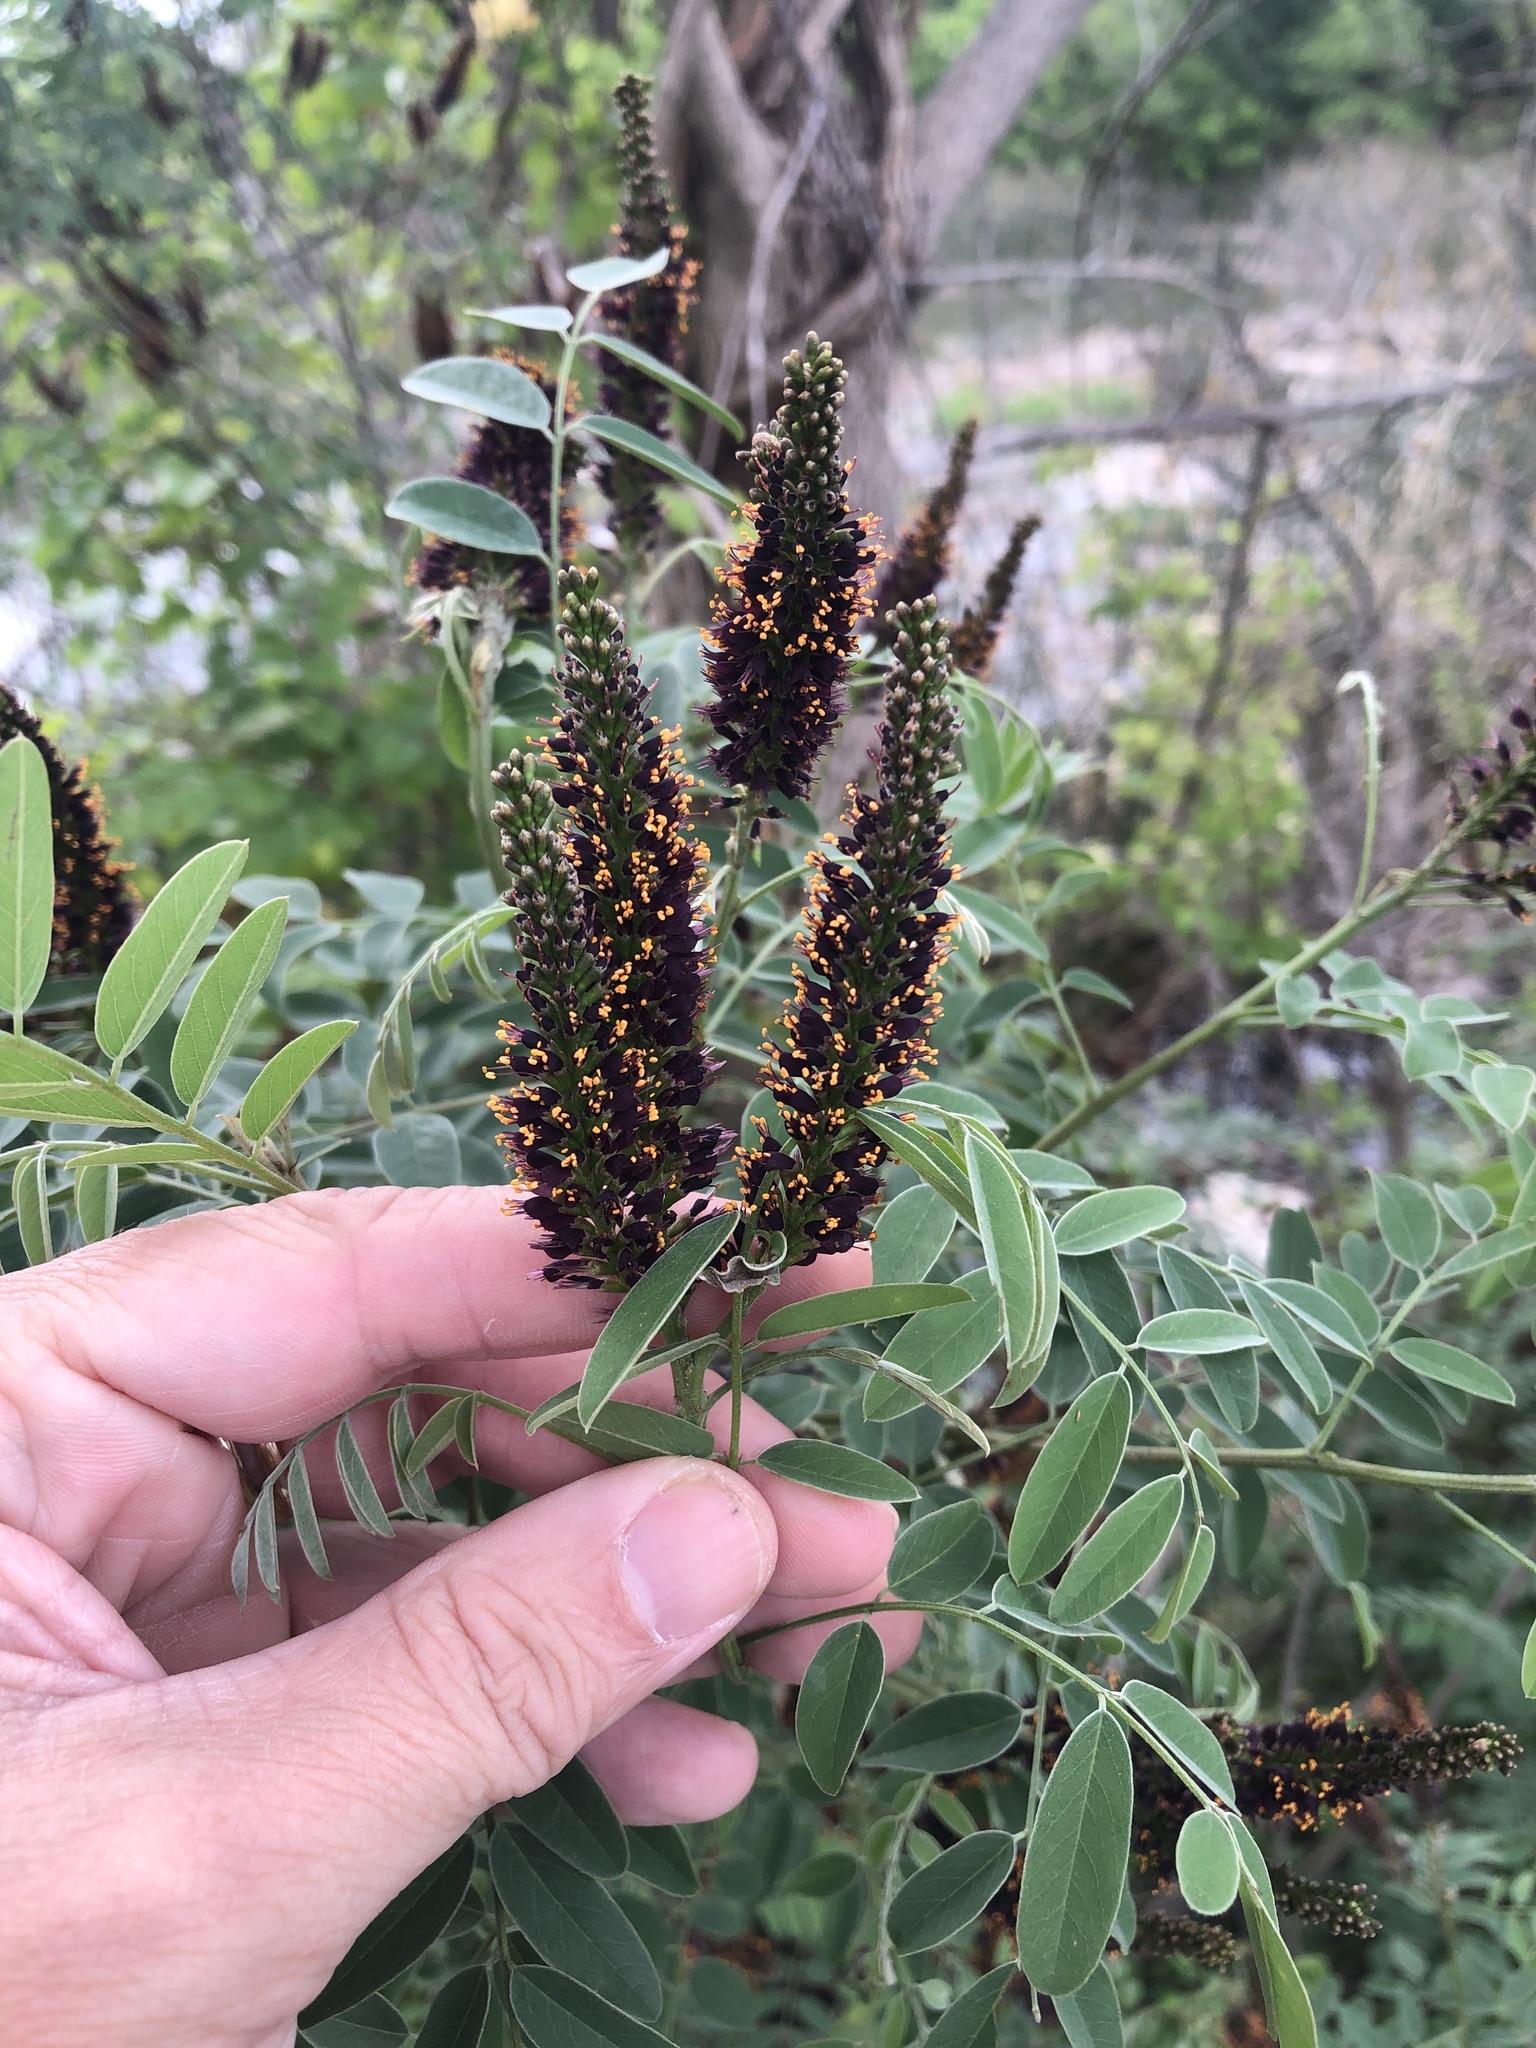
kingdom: Plantae
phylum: Tracheophyta
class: Magnoliopsida
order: Fabales
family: Fabaceae
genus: Amorpha
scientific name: Amorpha fruticosa
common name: False indigo
